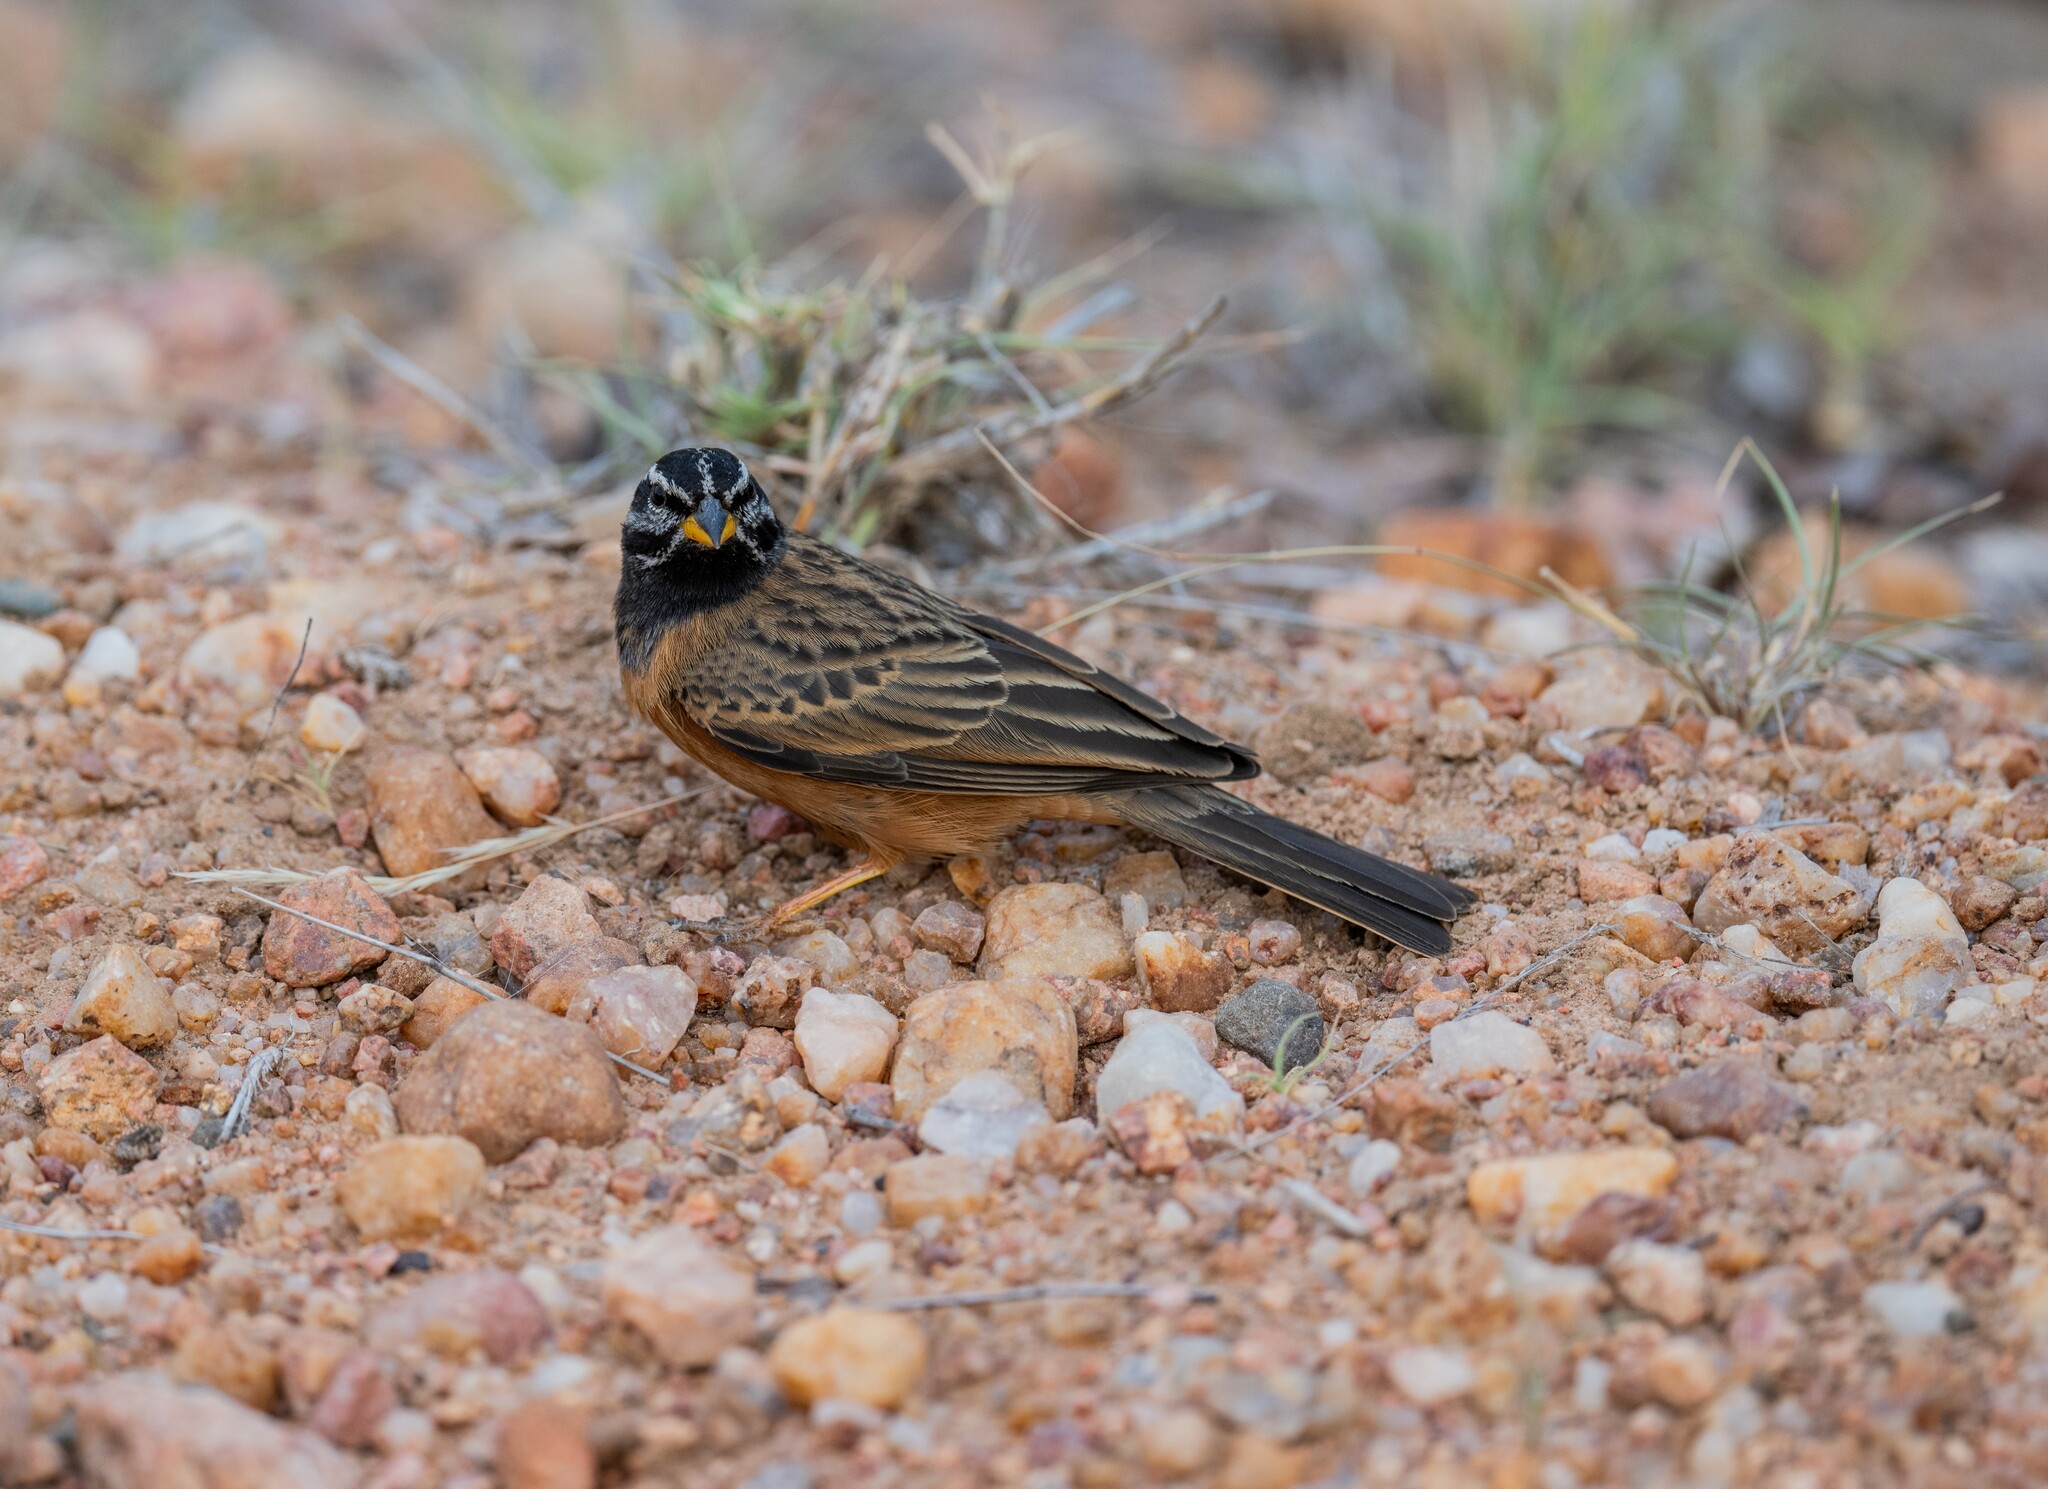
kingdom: Animalia
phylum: Chordata
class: Aves
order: Passeriformes
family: Emberizidae
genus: Emberiza
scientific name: Emberiza tahapisi
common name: Cinnamon-breasted bunting
